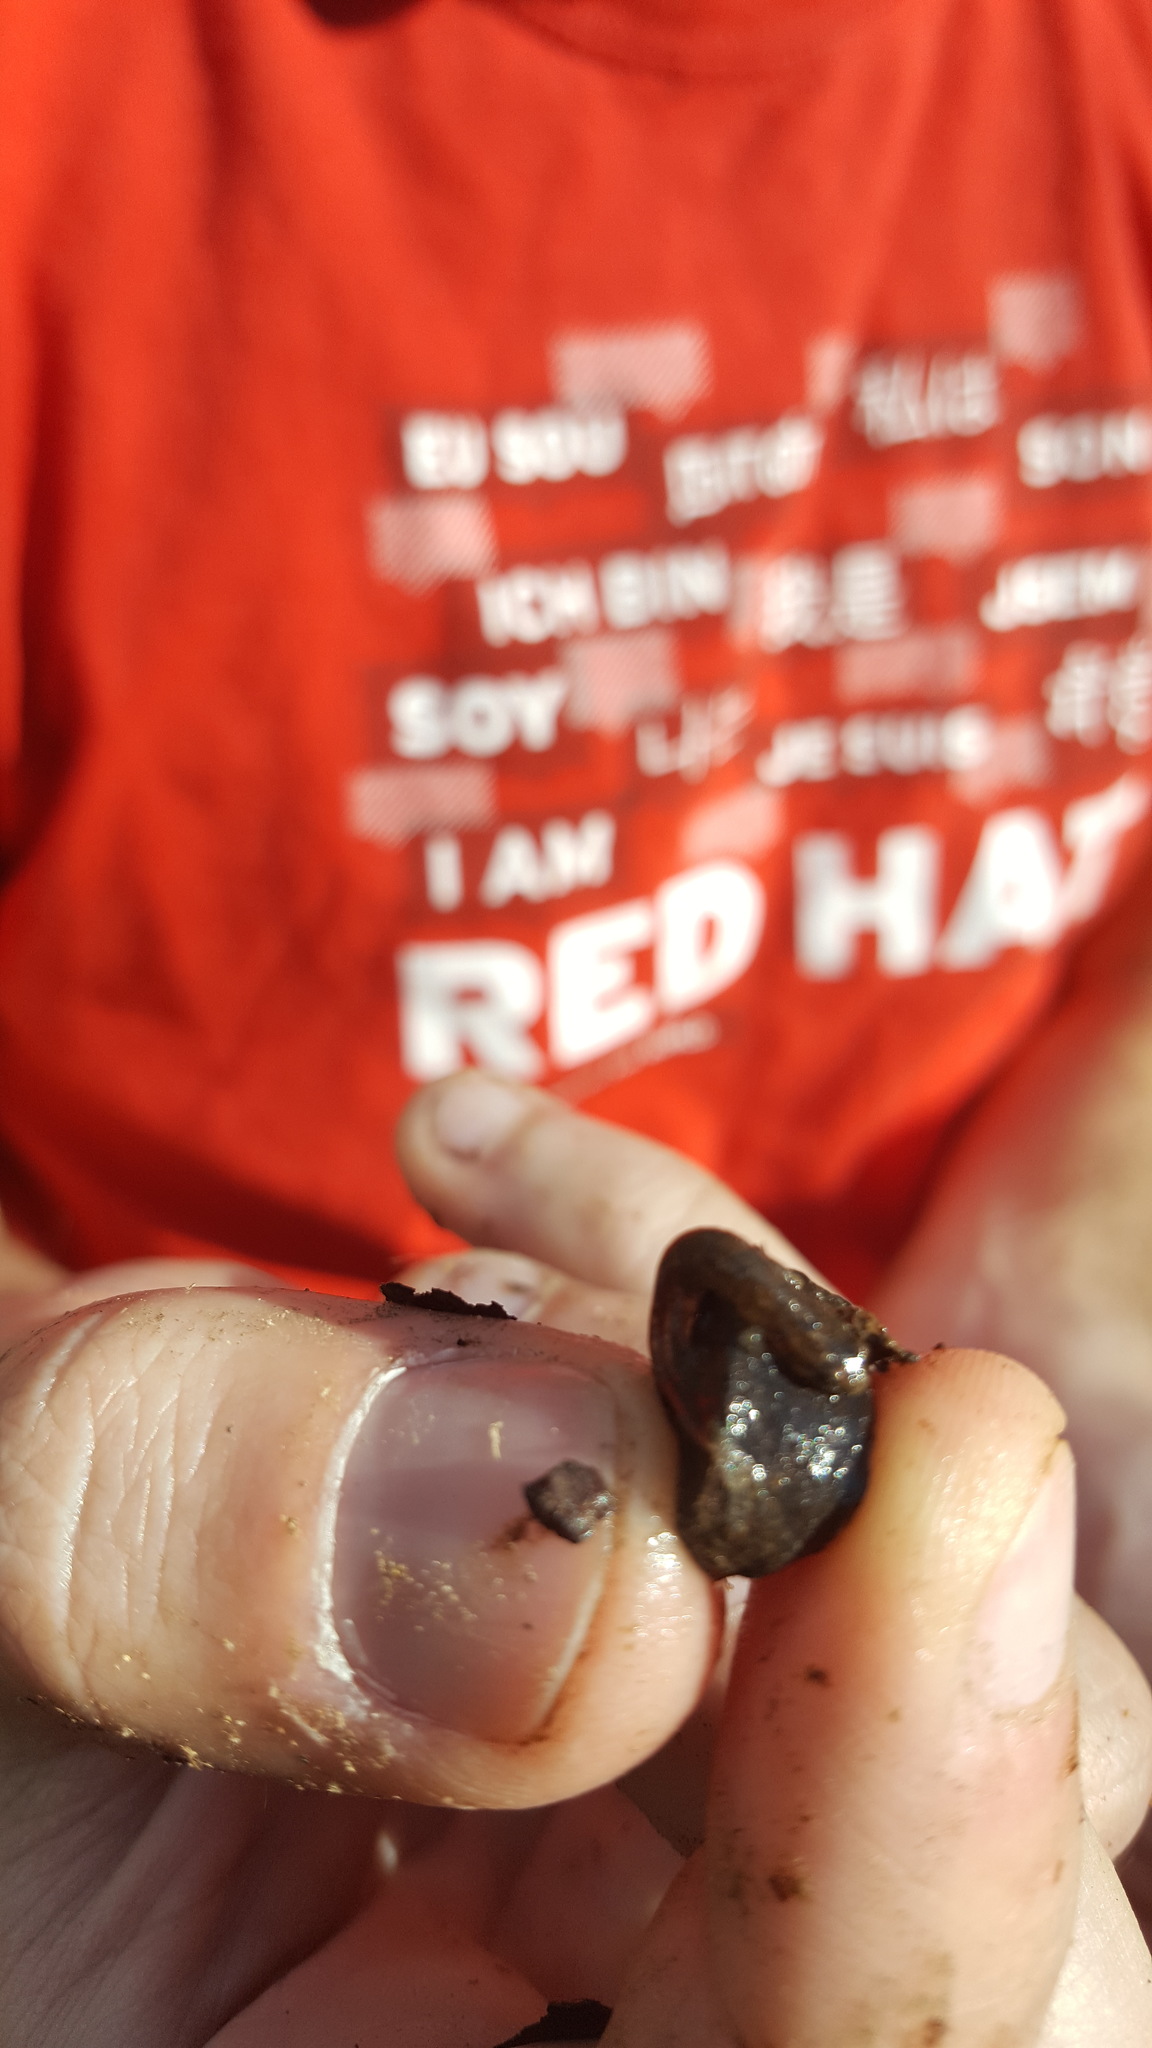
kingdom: Animalia
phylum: Chordata
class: Amphibia
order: Caudata
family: Plethodontidae
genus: Desmognathus
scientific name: Desmognathus
